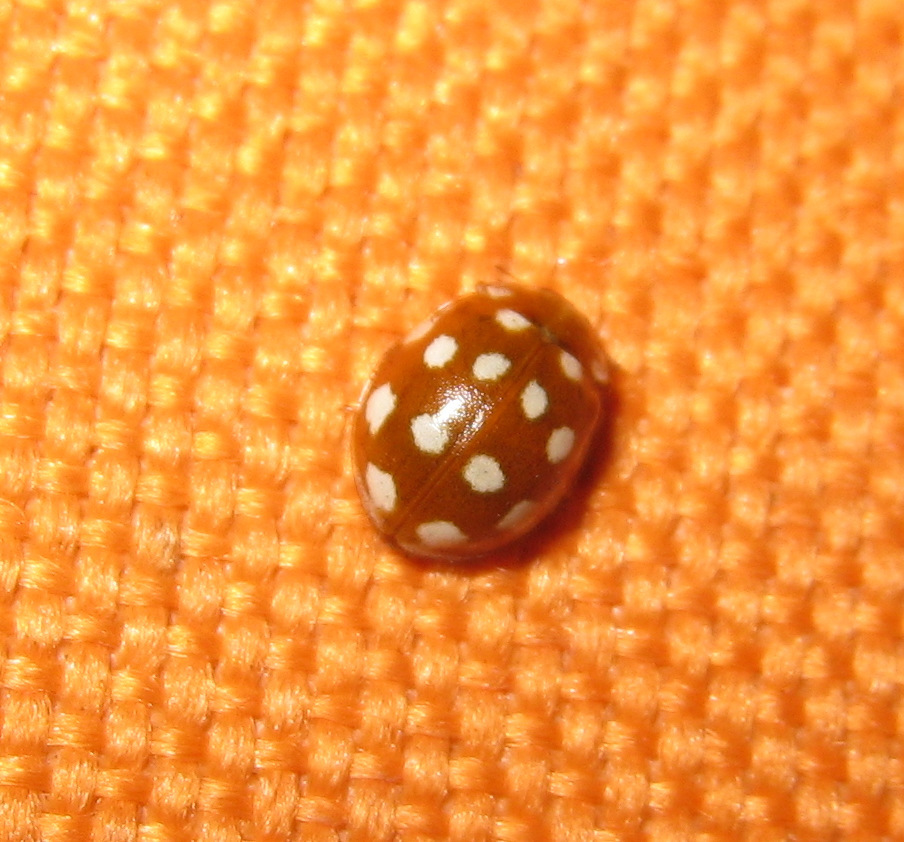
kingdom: Animalia
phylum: Arthropoda
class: Insecta
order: Coleoptera
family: Coccinellidae
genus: Calvia
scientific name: Calvia quatuordecimguttata
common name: Cream-spot ladybird
